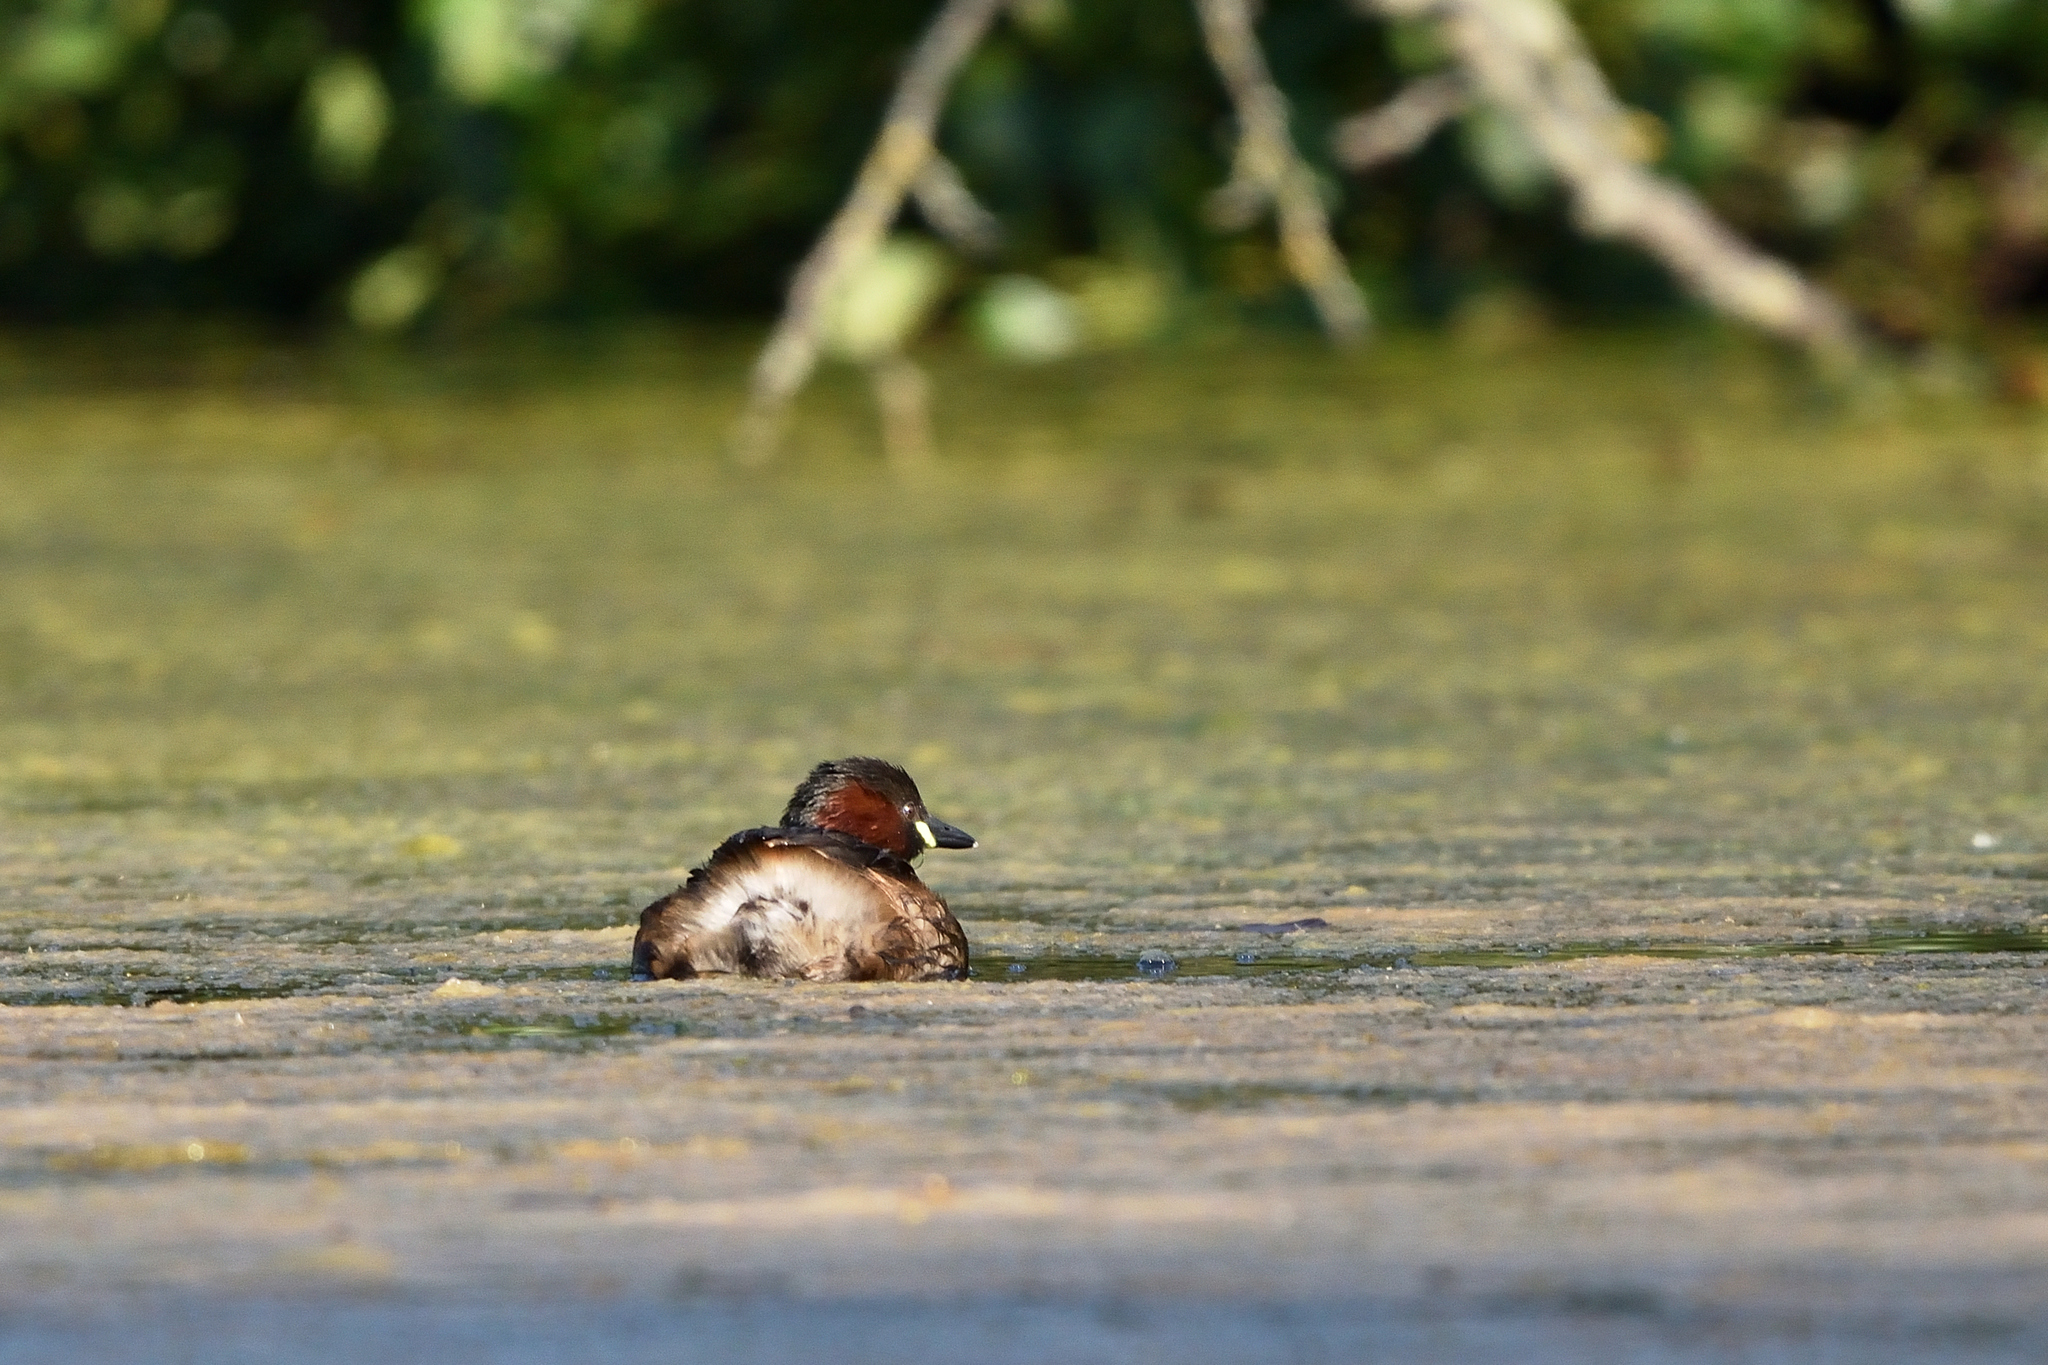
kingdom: Animalia
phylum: Chordata
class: Aves
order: Podicipediformes
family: Podicipedidae
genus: Tachybaptus
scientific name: Tachybaptus ruficollis
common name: Little grebe
